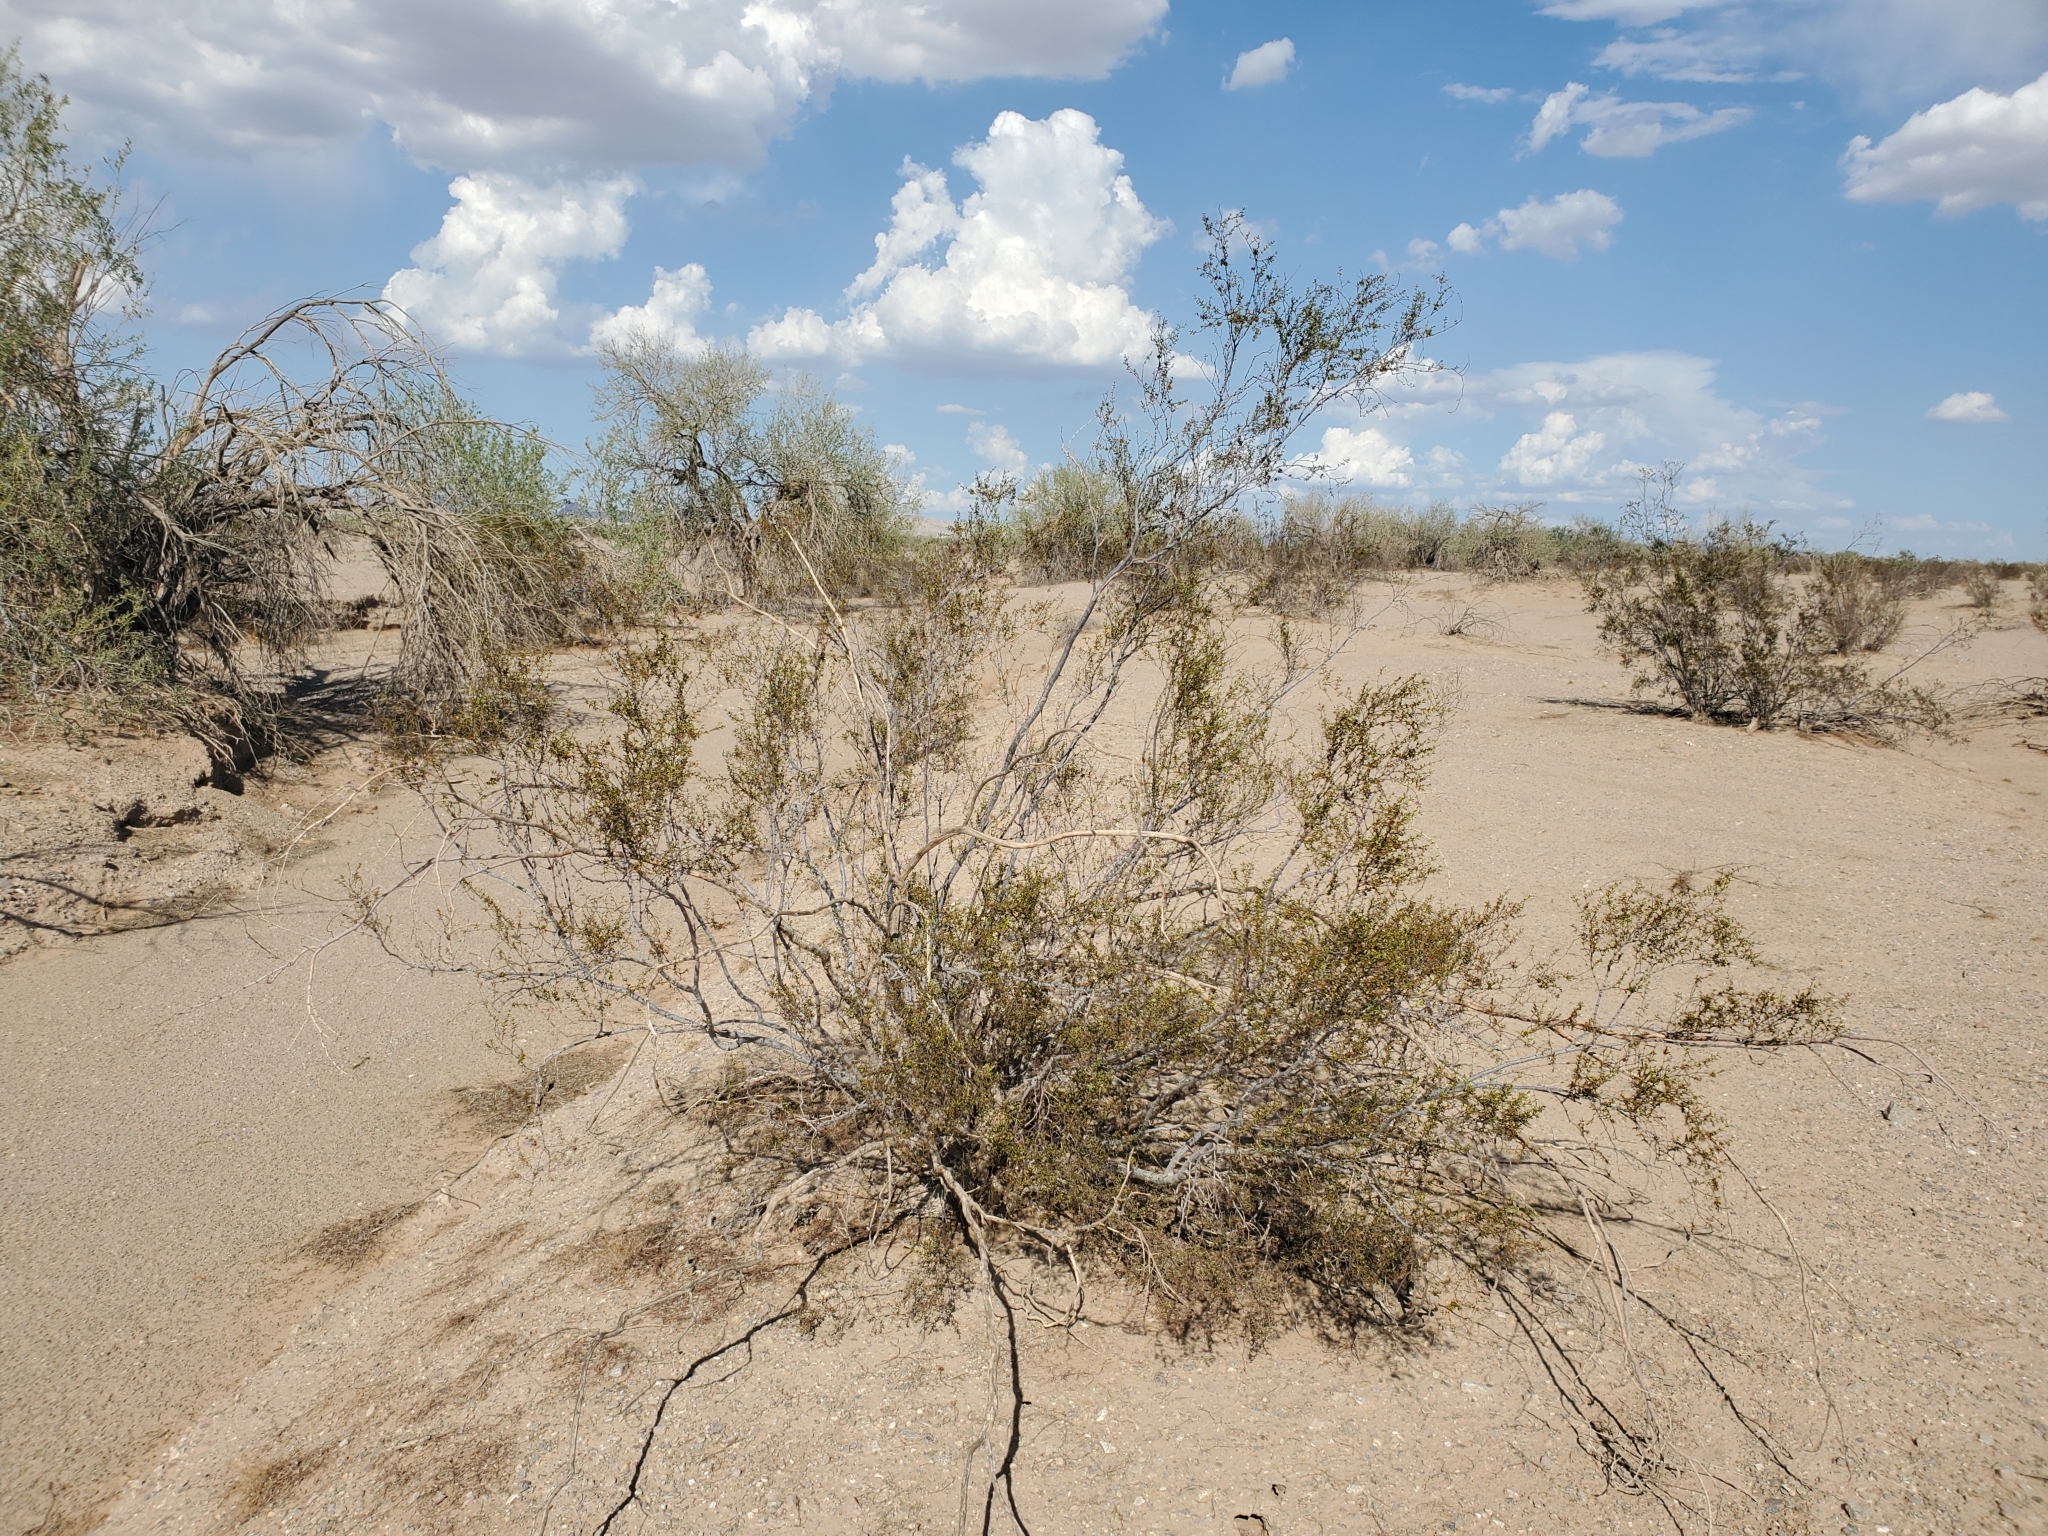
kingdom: Plantae
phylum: Tracheophyta
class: Magnoliopsida
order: Zygophyllales
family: Zygophyllaceae
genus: Larrea
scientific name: Larrea tridentata
